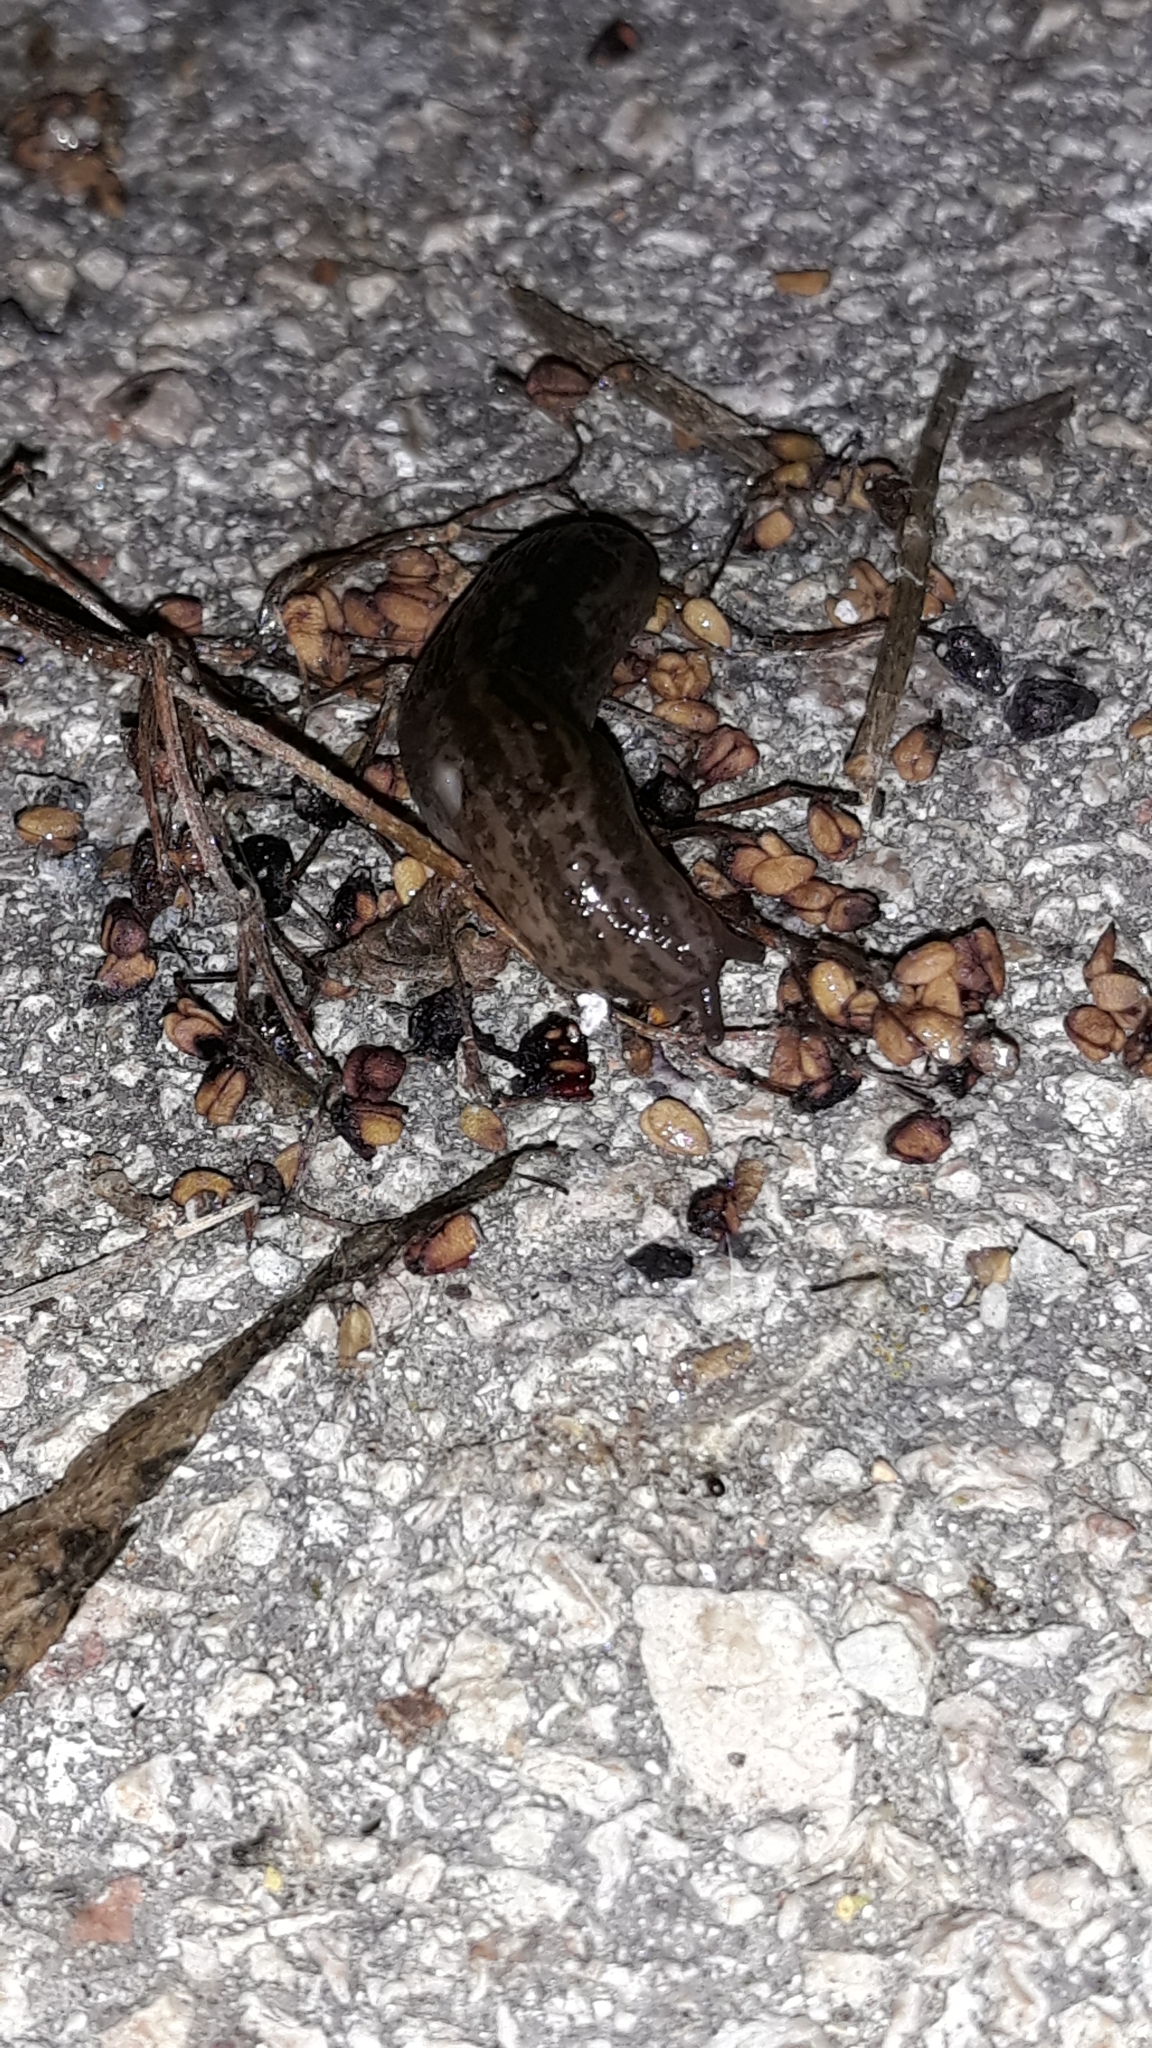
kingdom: Animalia
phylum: Mollusca
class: Gastropoda
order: Stylommatophora
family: Limacidae
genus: Limax
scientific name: Limax maximus
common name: Great grey slug
